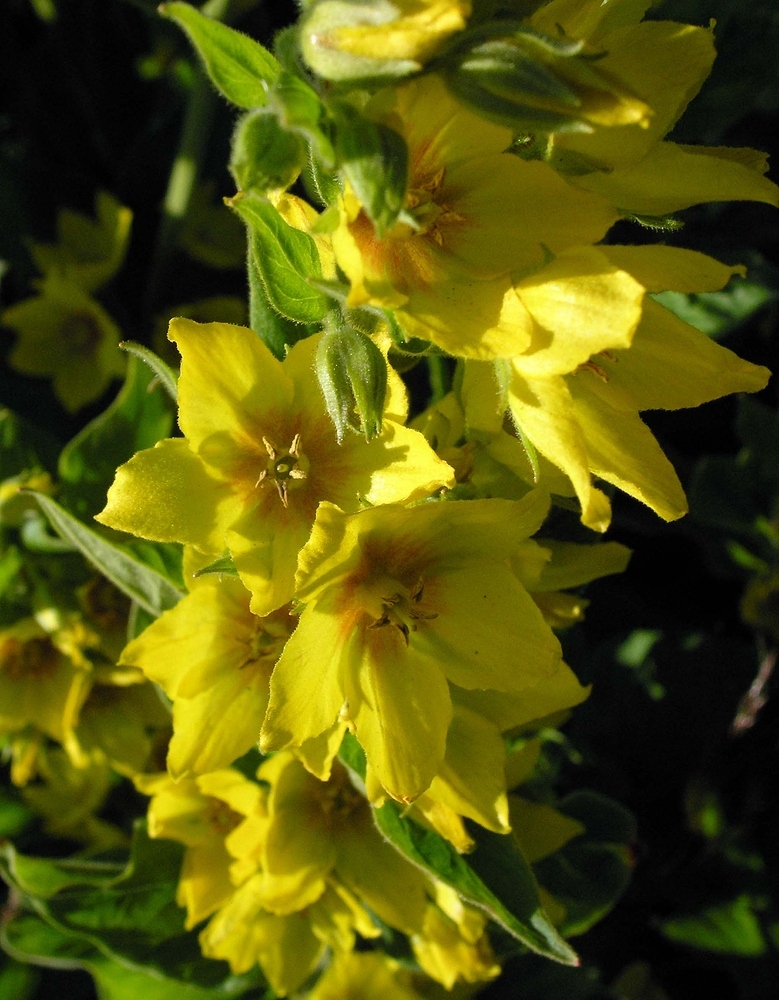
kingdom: Plantae
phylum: Tracheophyta
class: Magnoliopsida
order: Ericales
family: Primulaceae
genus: Lysimachia
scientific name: Lysimachia punctata
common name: Dotted loosestrife
